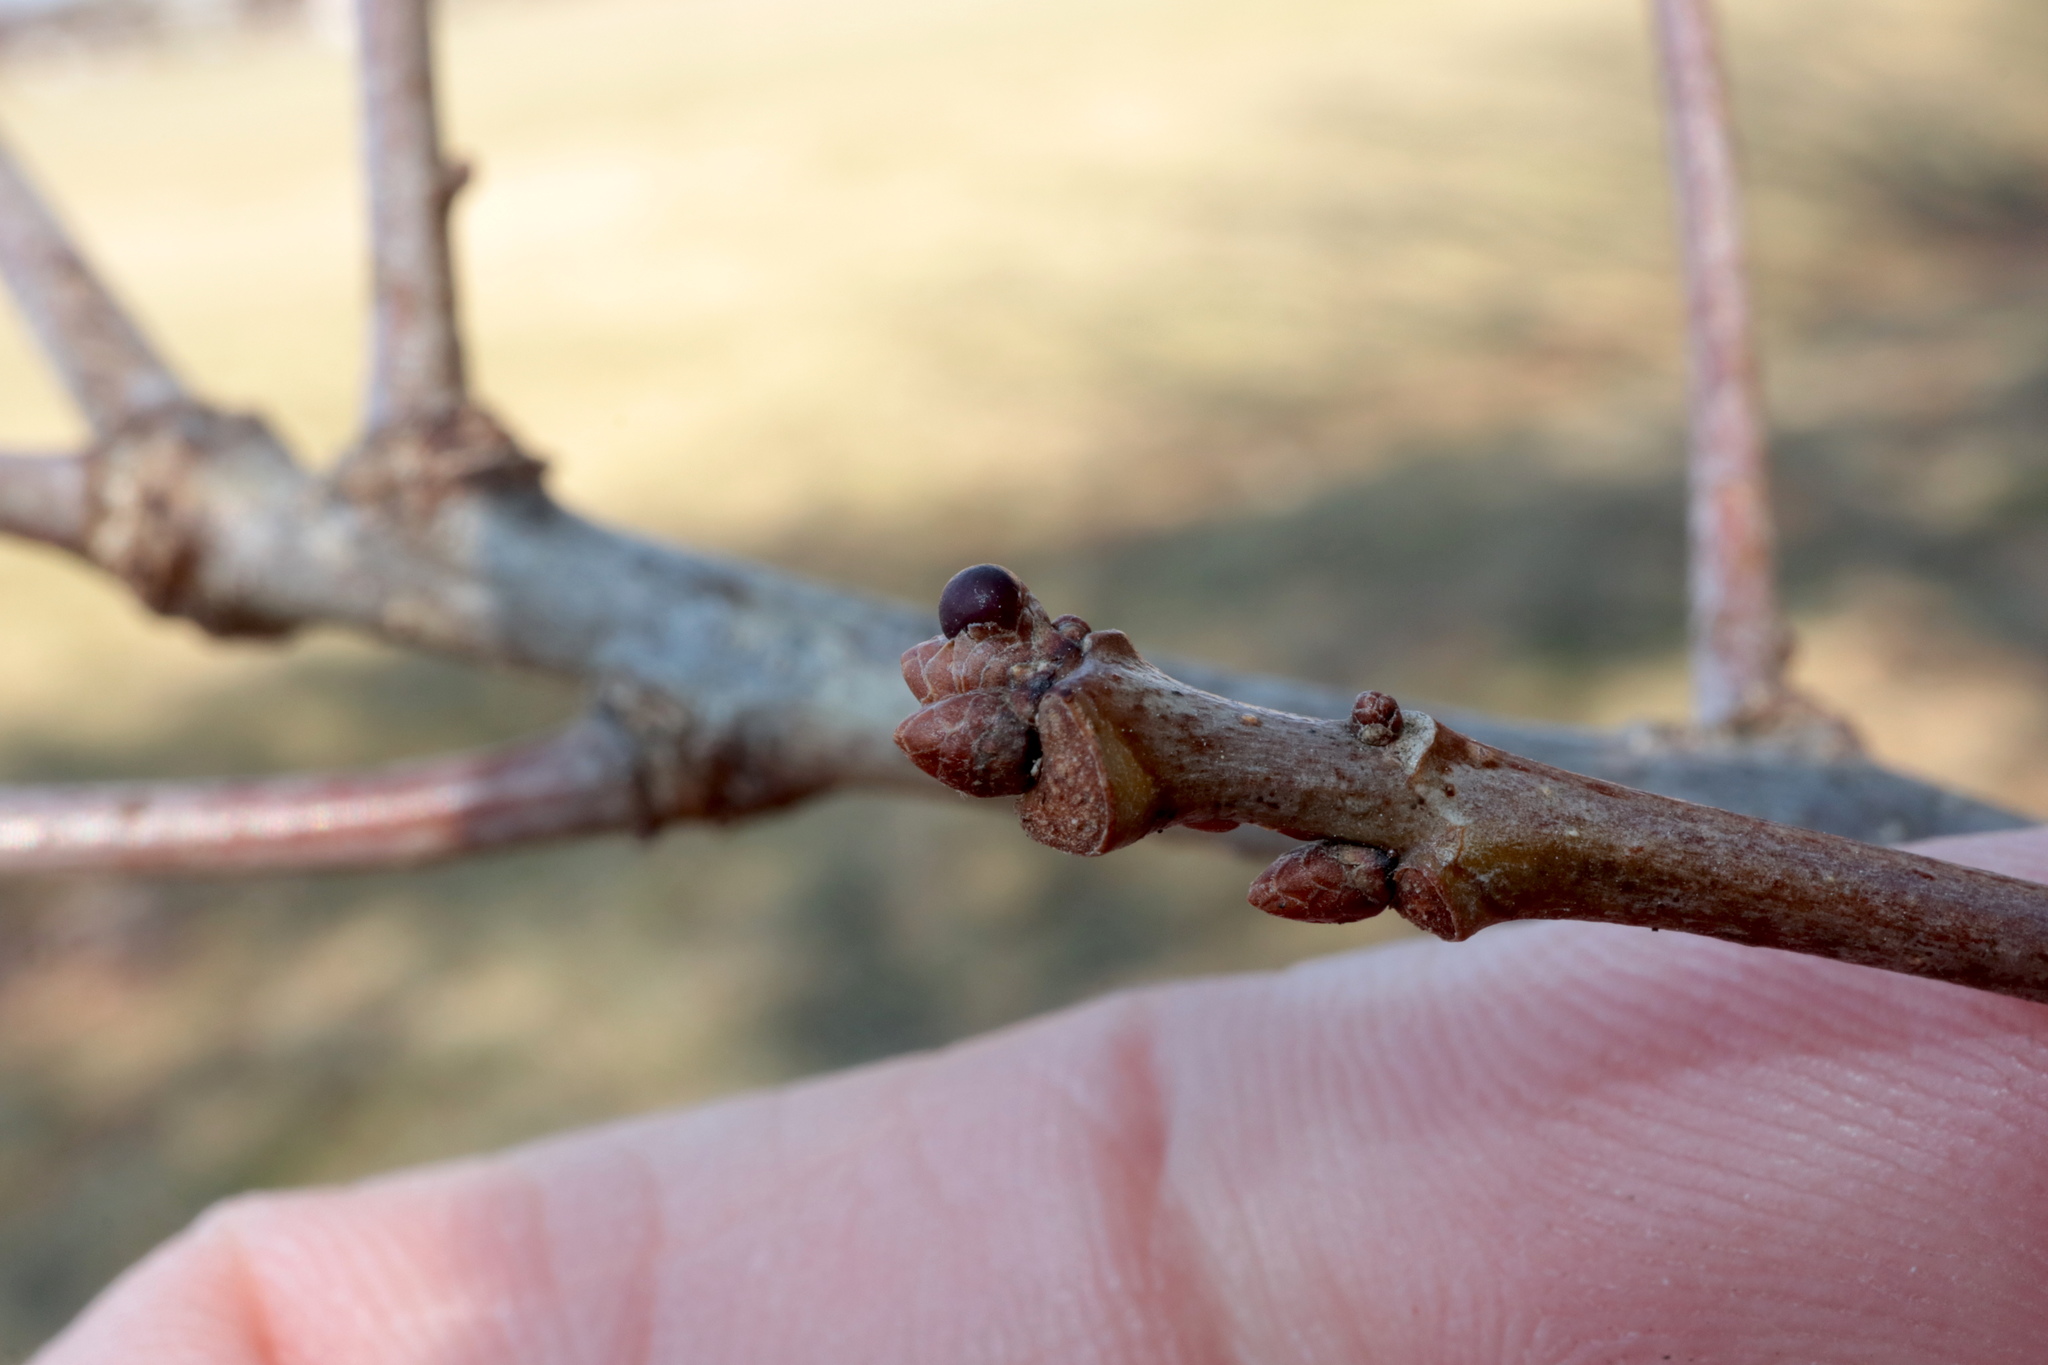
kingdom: Animalia
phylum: Arthropoda
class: Insecta
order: Hymenoptera
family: Cynipidae
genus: Neuroterus
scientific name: Neuroterus
